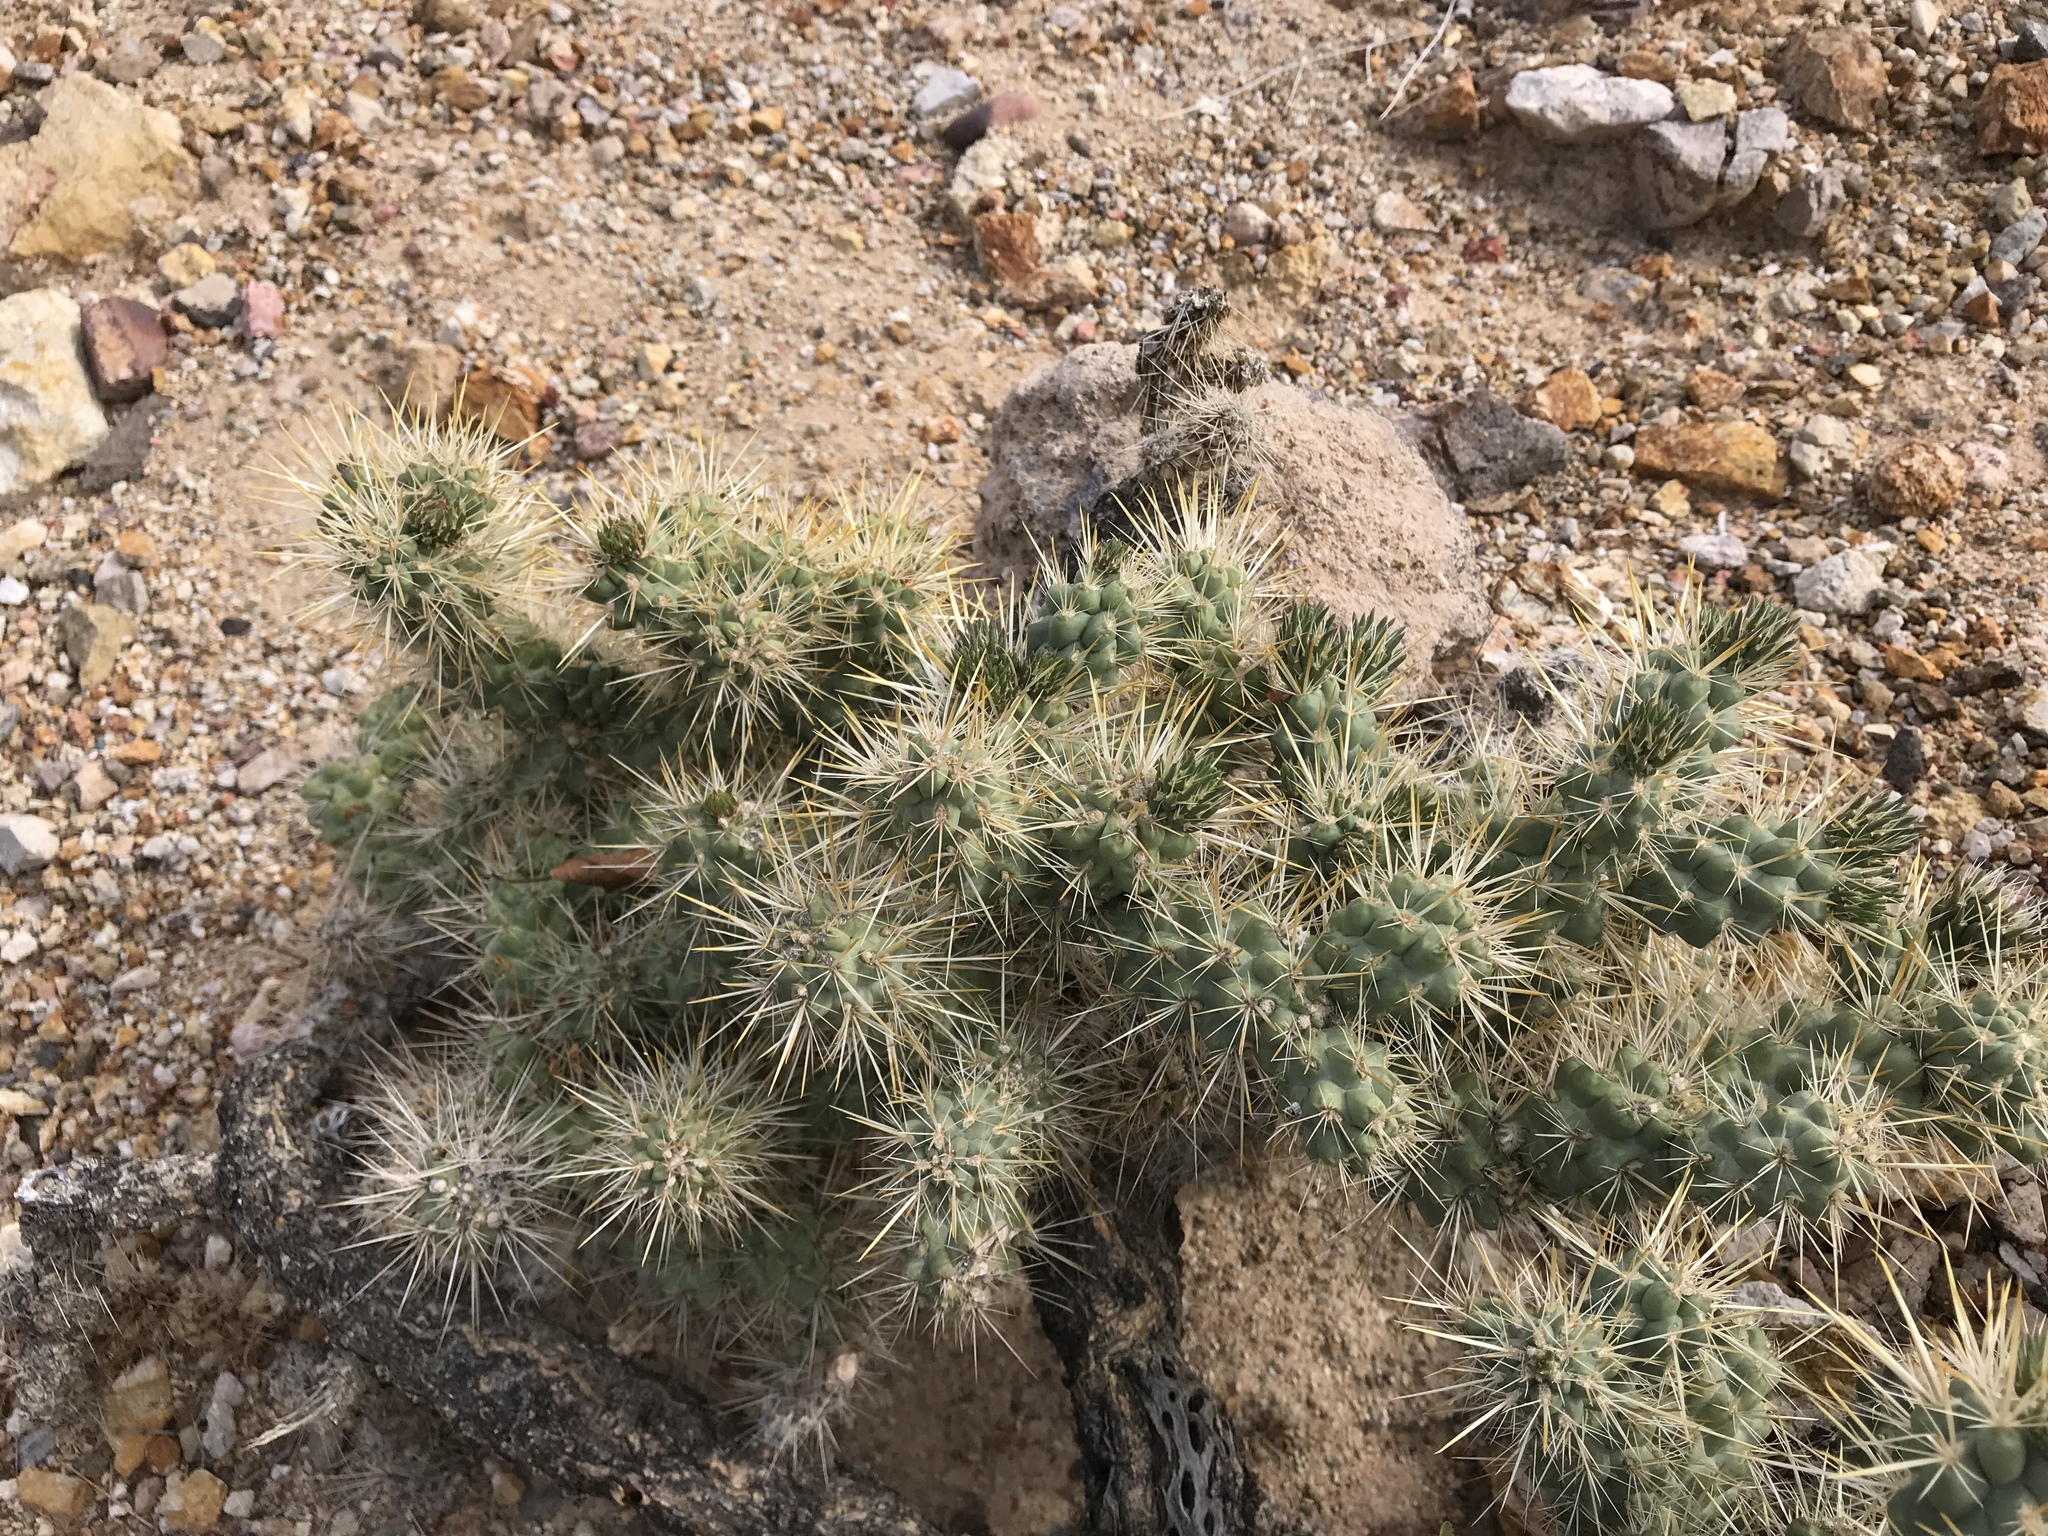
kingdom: Plantae
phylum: Tracheophyta
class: Magnoliopsida
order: Caryophyllales
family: Cactaceae
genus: Cylindropuntia
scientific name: Cylindropuntia echinocarpa
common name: Ground cholla
